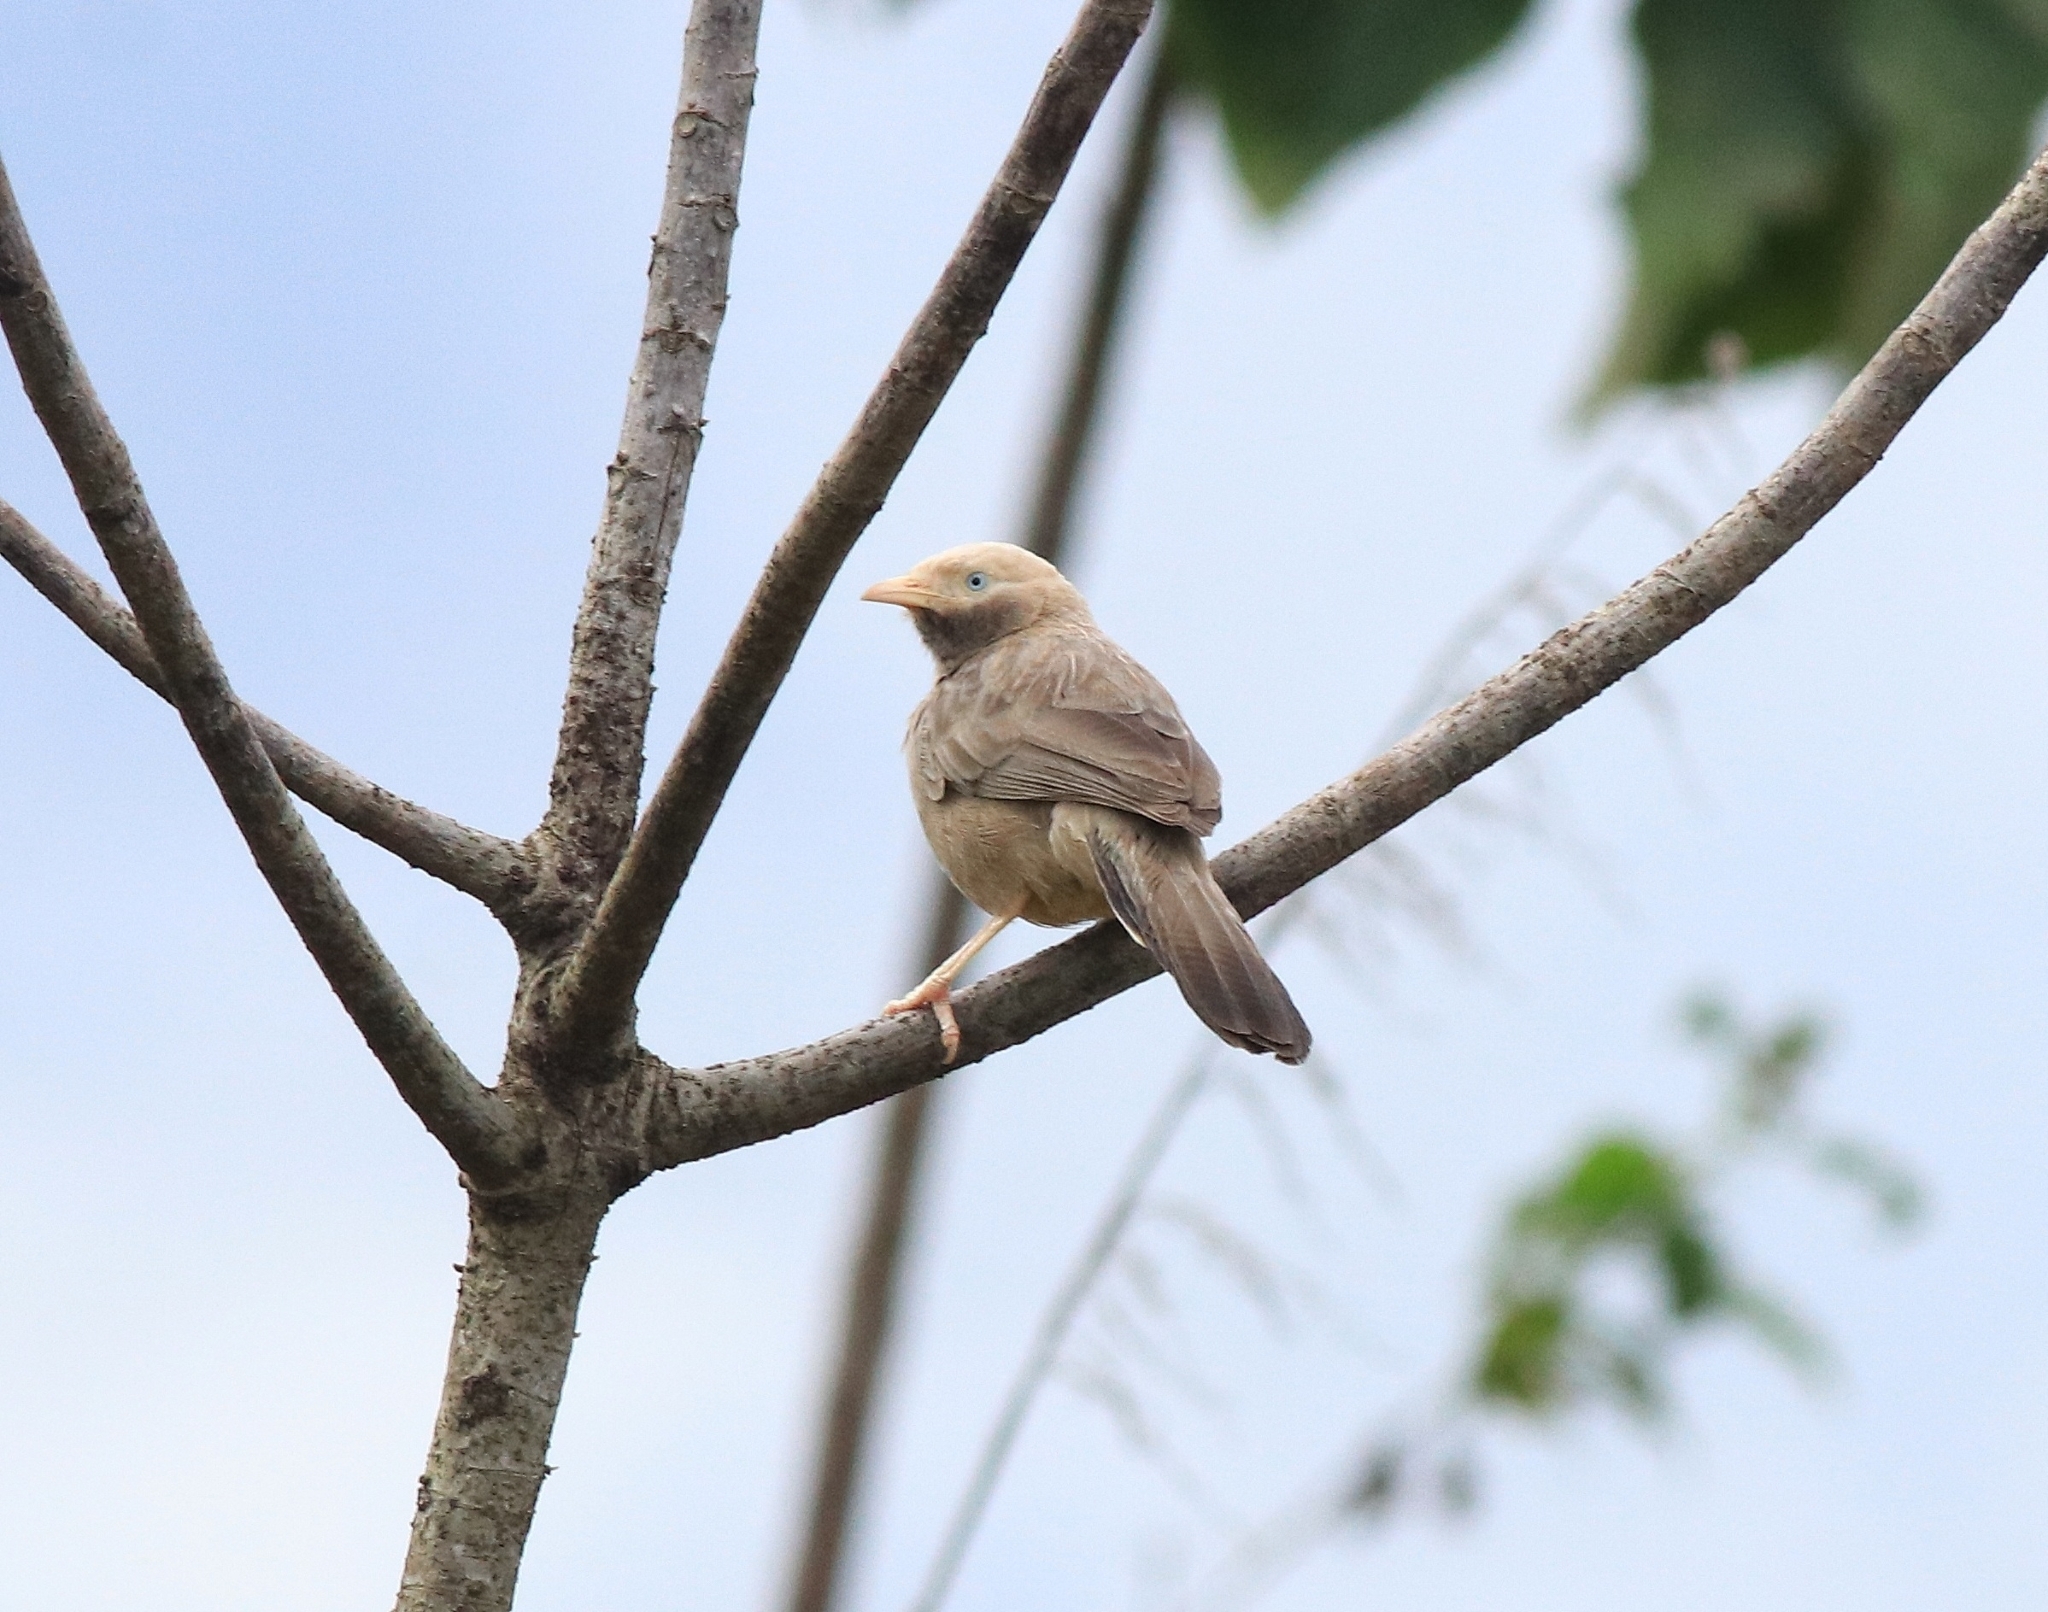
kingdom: Animalia
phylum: Chordata
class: Aves
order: Passeriformes
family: Leiothrichidae
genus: Turdoides
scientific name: Turdoides affinis
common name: Yellow-billed babbler
